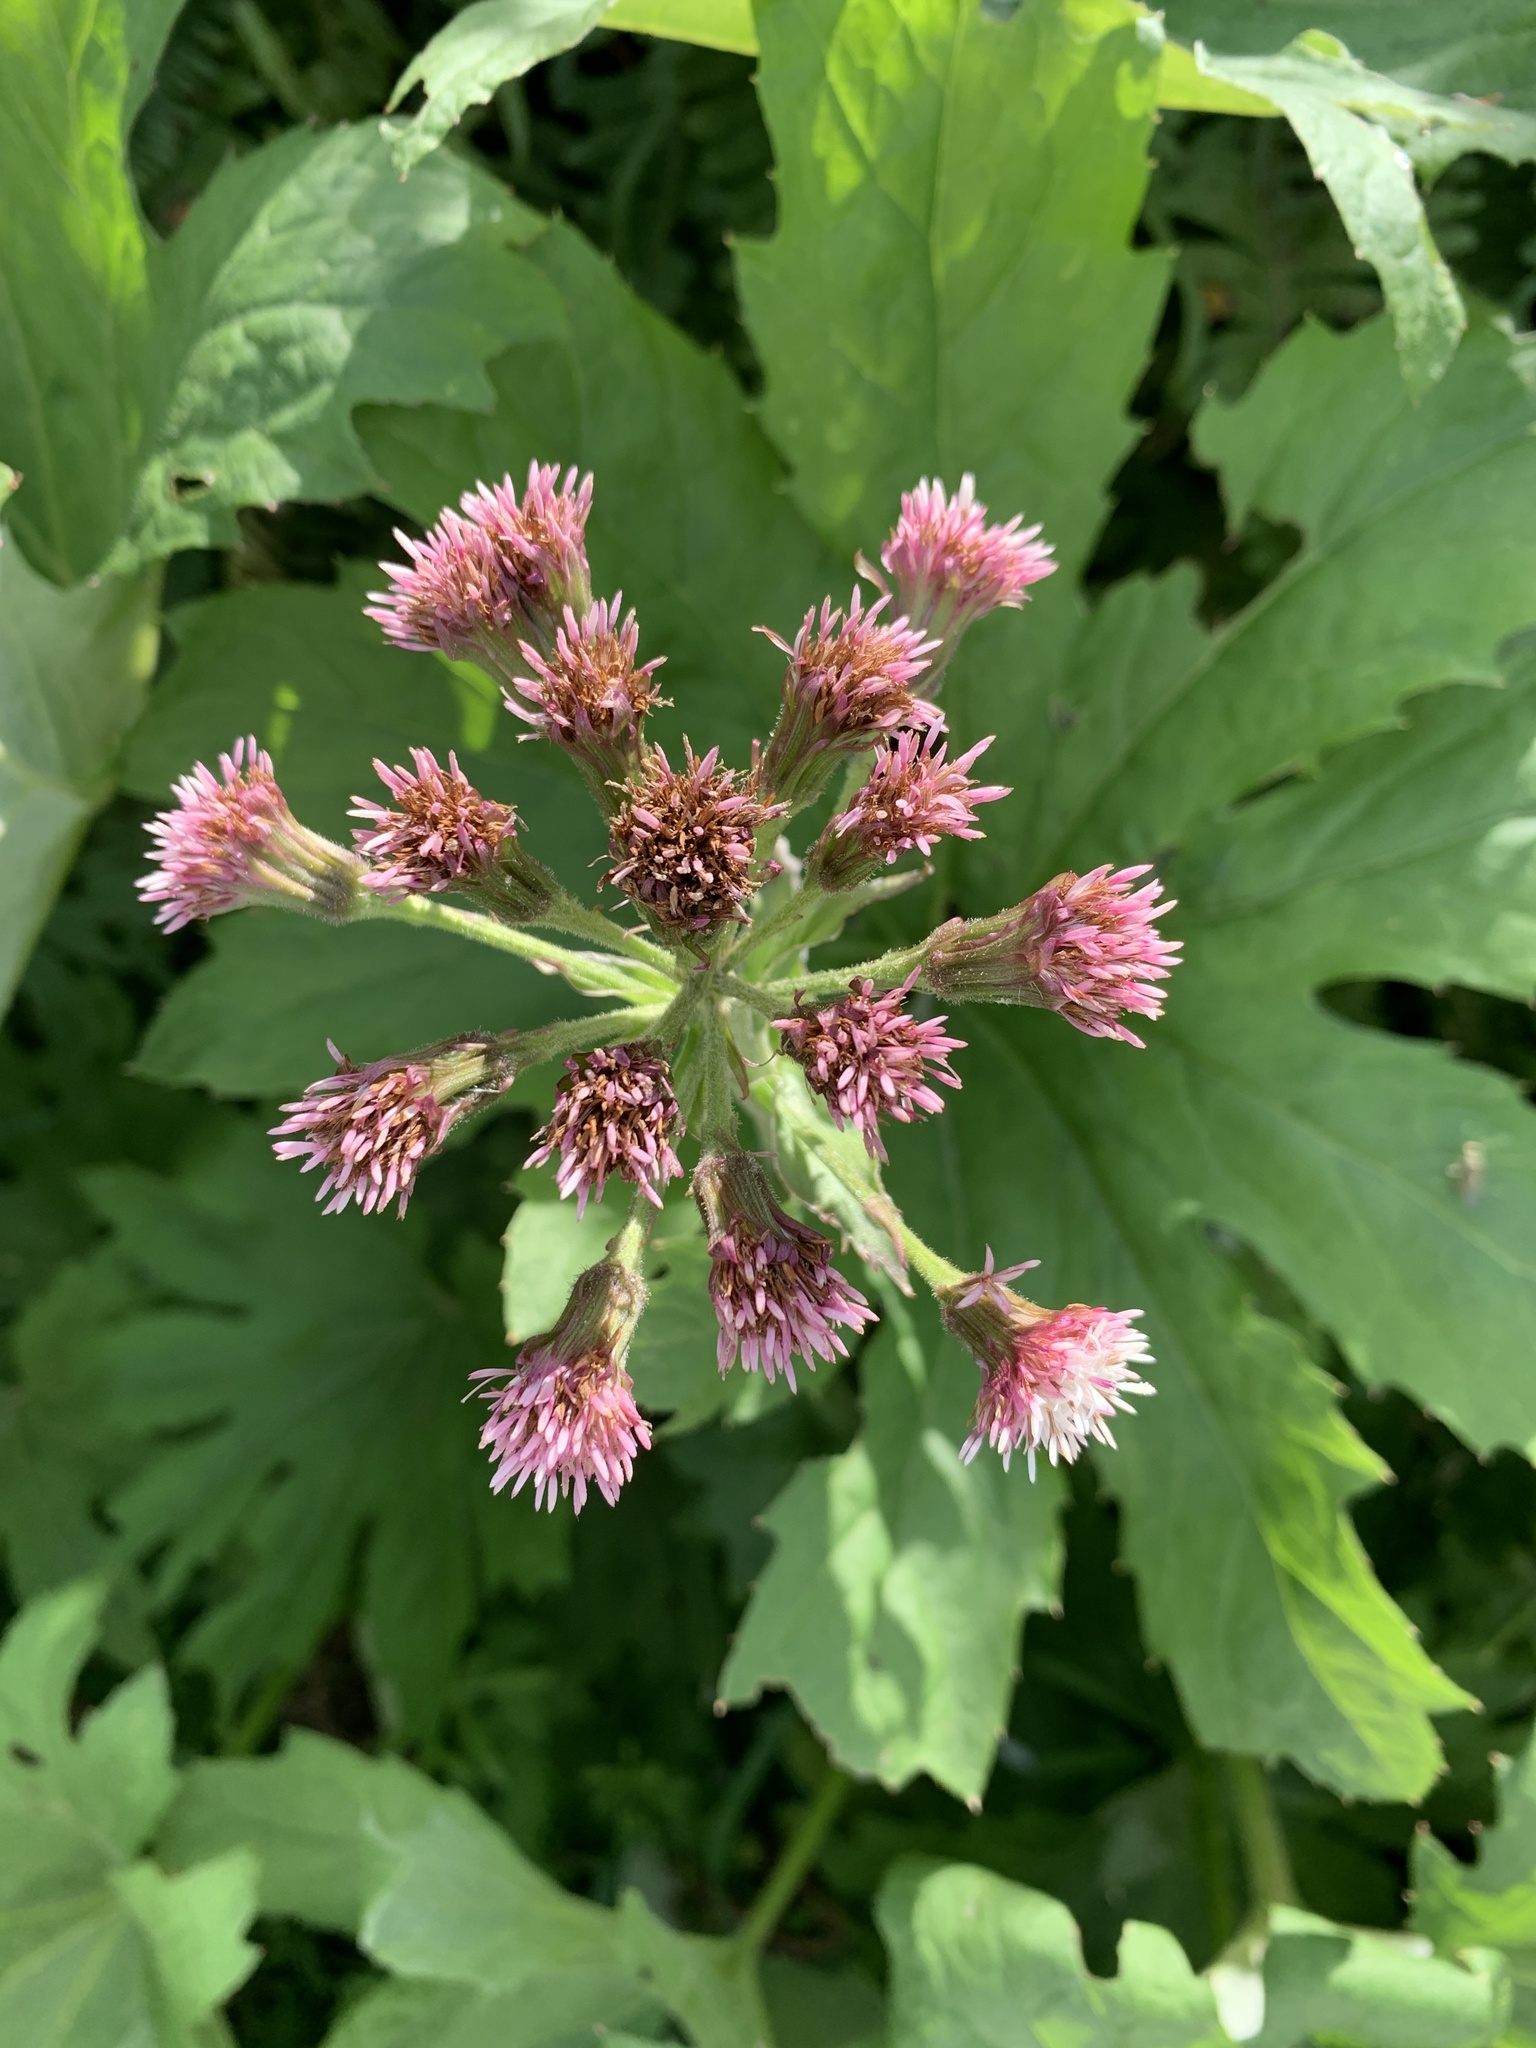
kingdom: Plantae
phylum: Tracheophyta
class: Magnoliopsida
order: Asterales
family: Asteraceae
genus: Petasites
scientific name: Petasites frigidus
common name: Arctic butterbur
